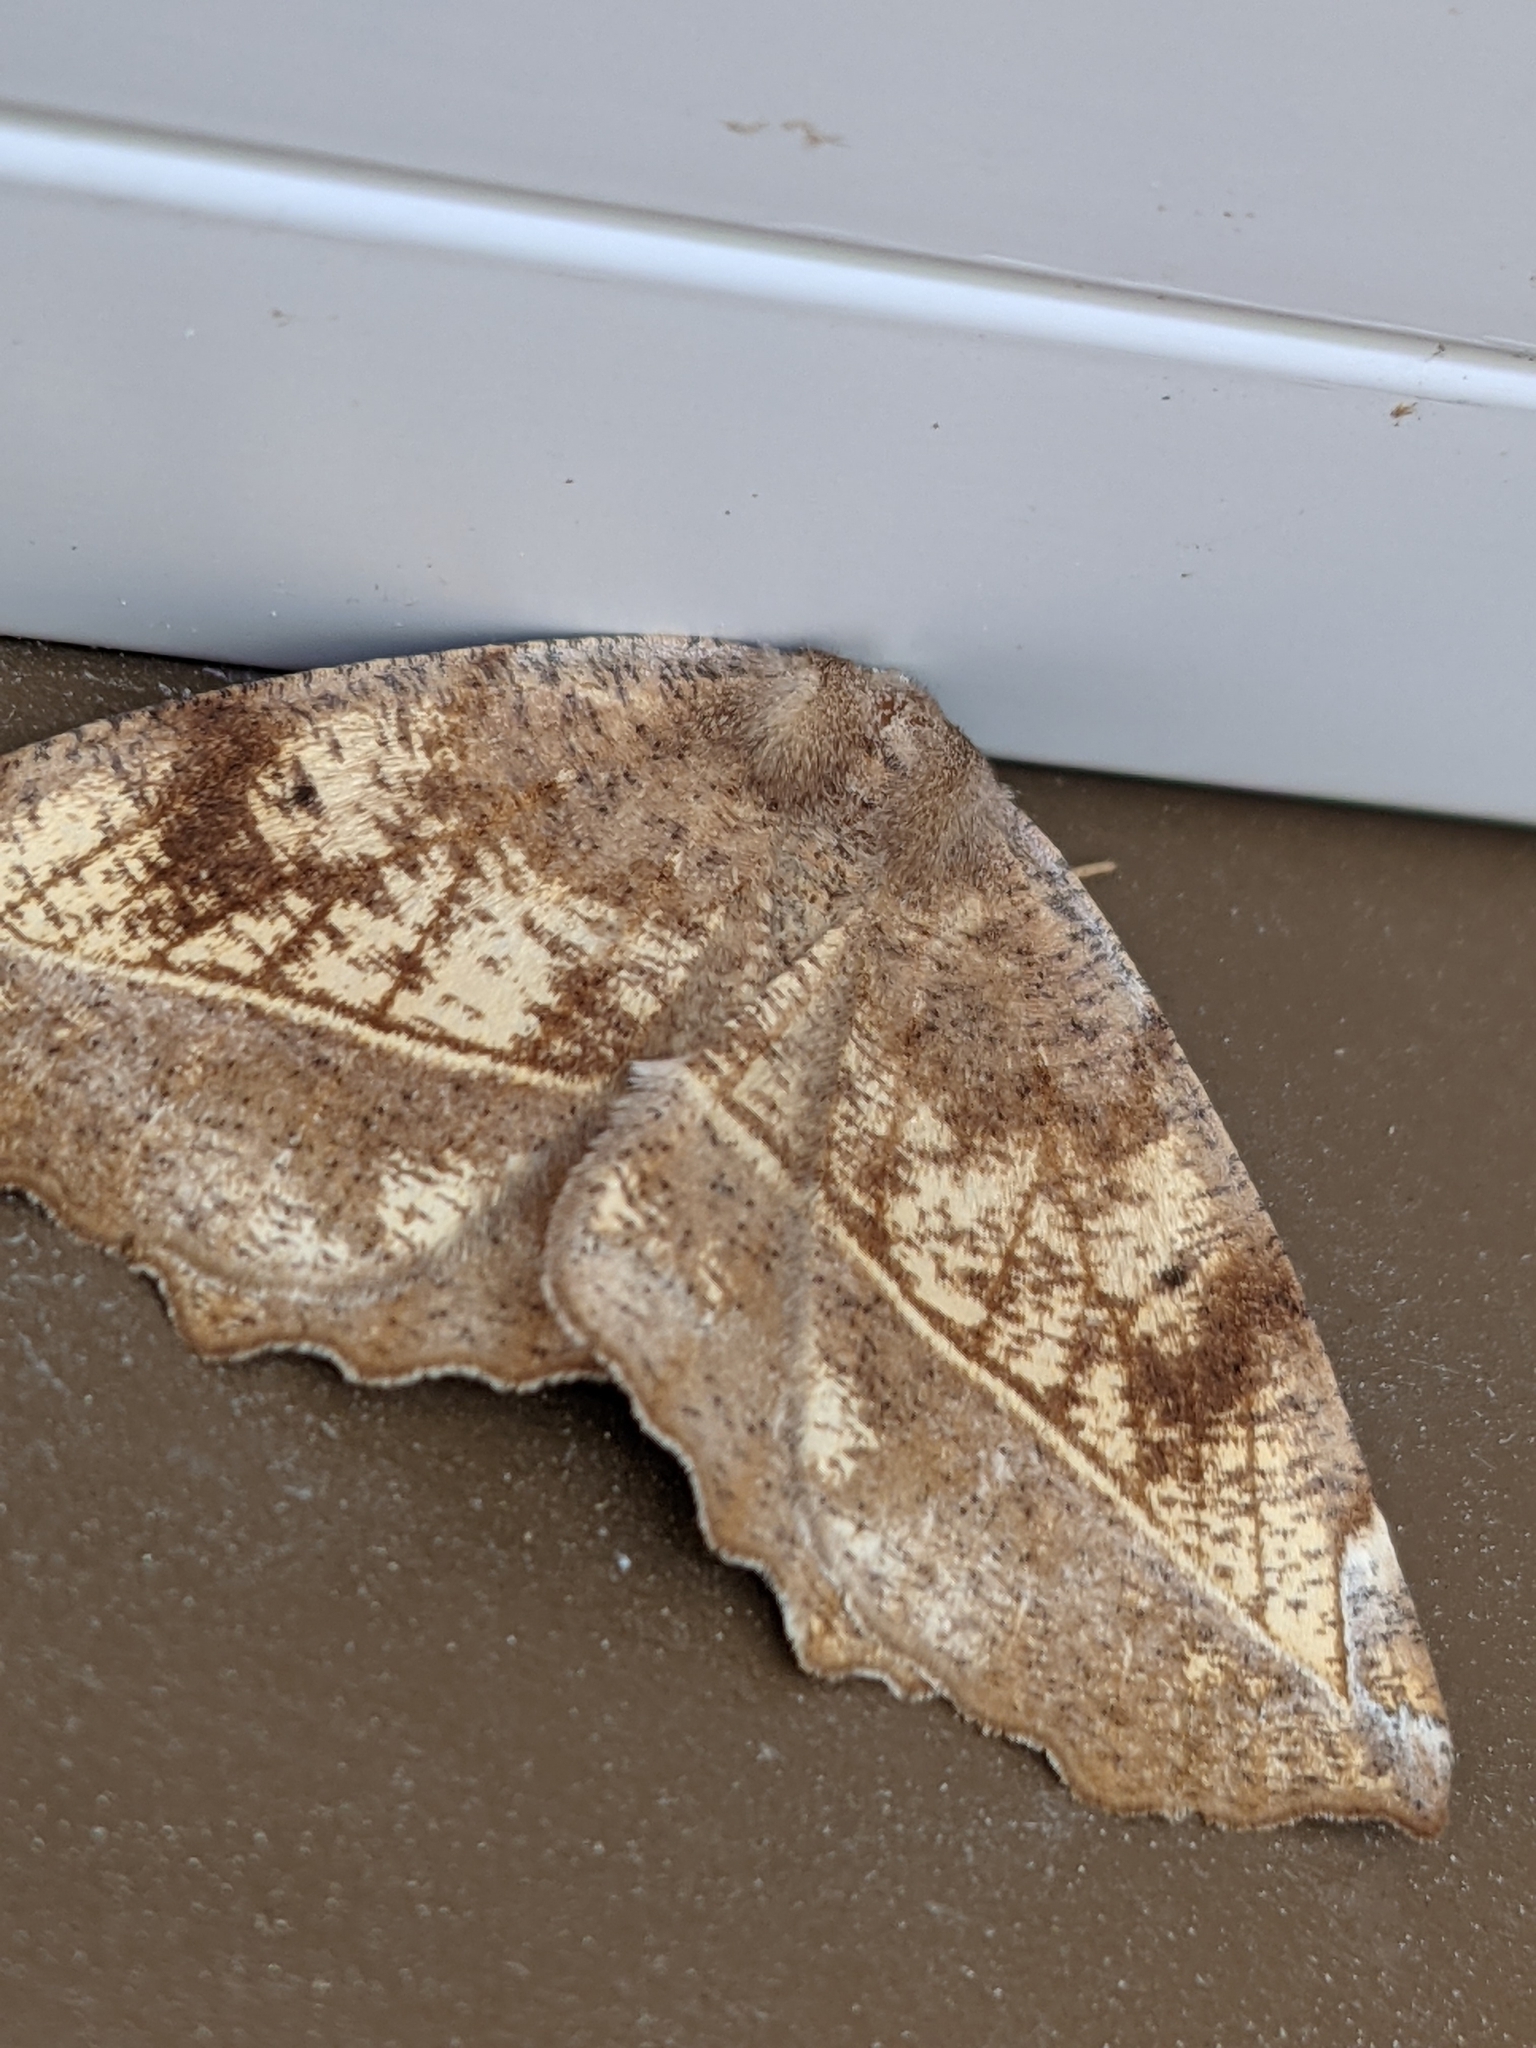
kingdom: Animalia
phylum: Arthropoda
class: Insecta
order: Lepidoptera
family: Geometridae
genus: Eutrapela
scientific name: Eutrapela clemataria
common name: Curved-toothed geometer
